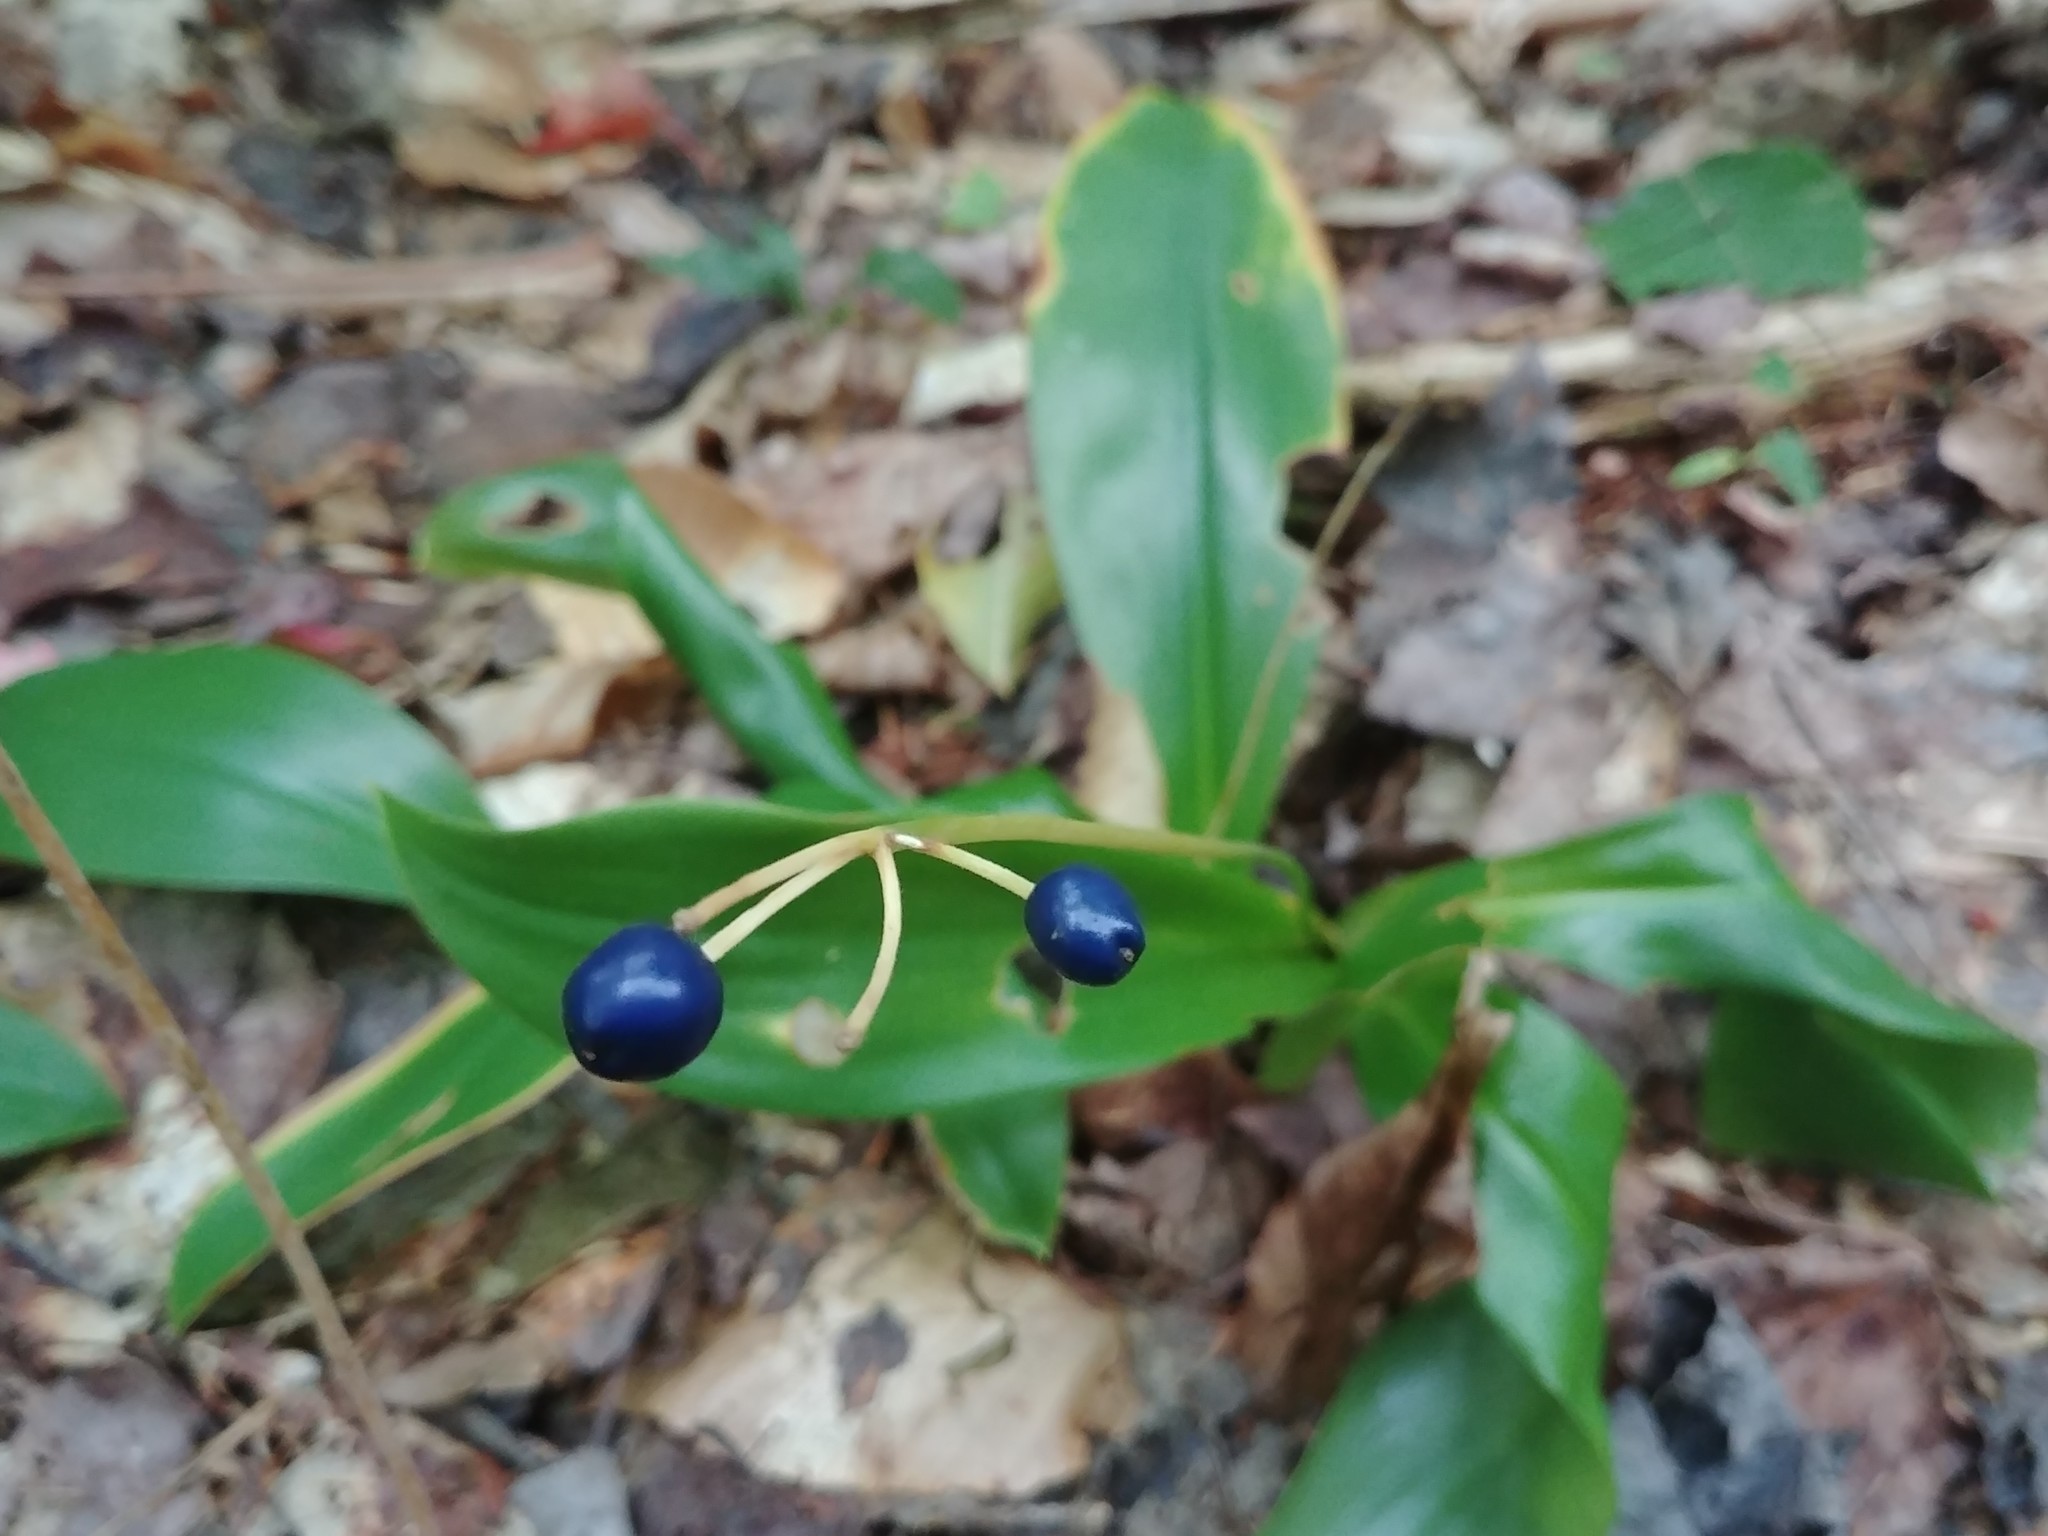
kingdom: Plantae
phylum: Tracheophyta
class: Liliopsida
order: Liliales
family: Liliaceae
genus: Clintonia
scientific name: Clintonia borealis
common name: Yellow clintonia
